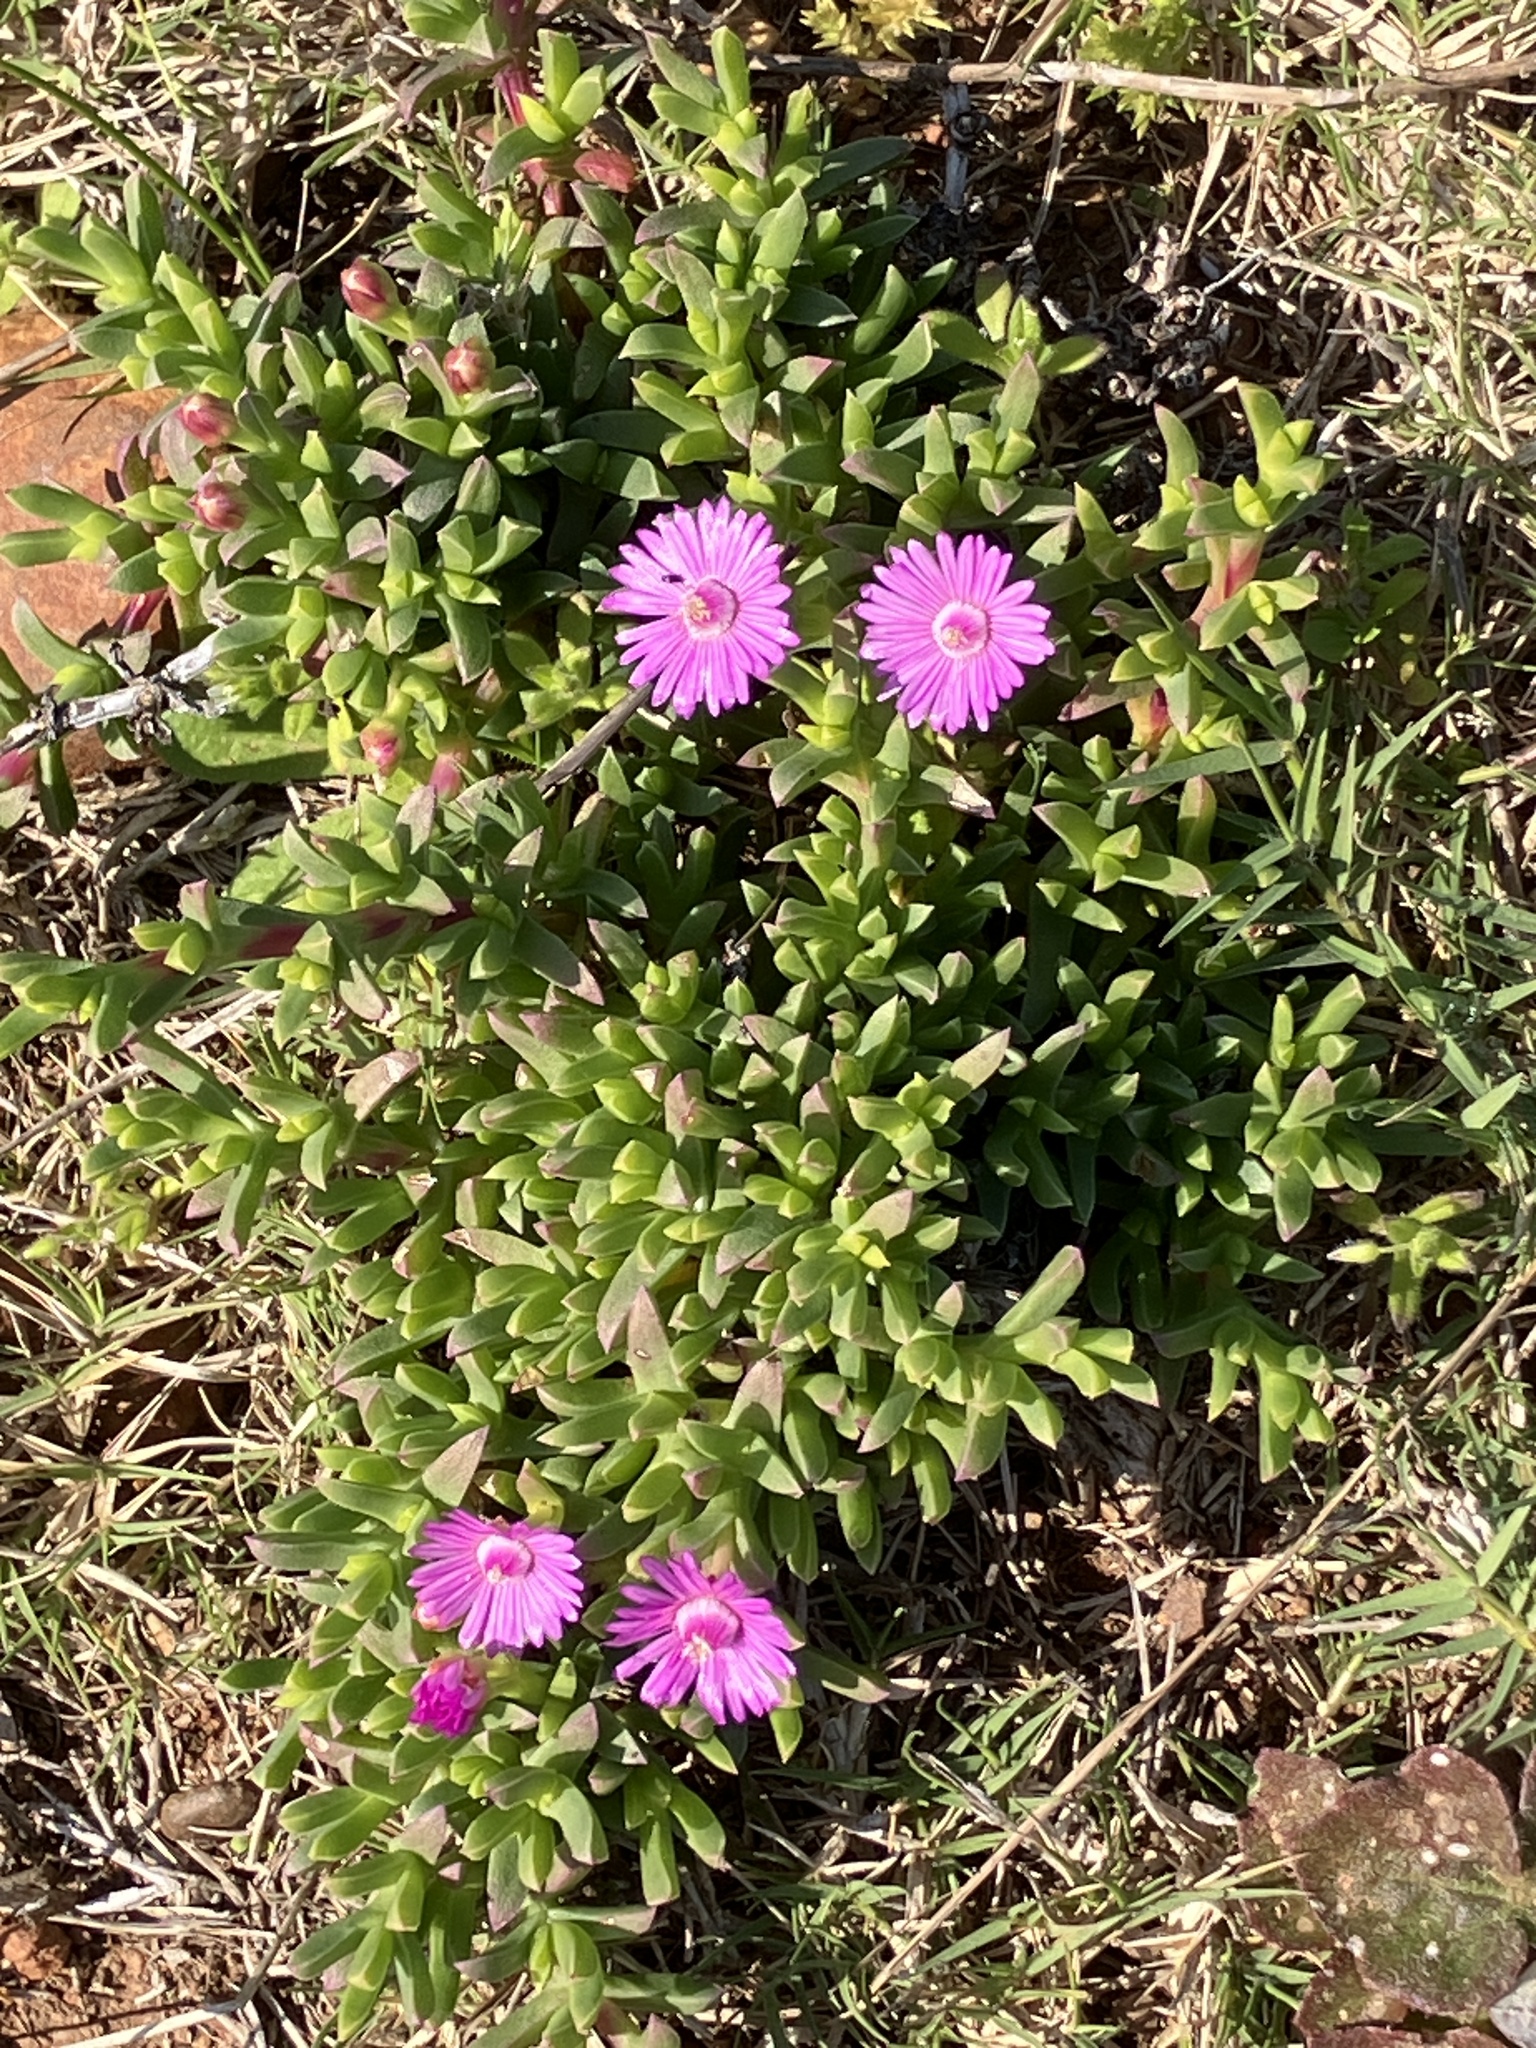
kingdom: Plantae
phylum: Tracheophyta
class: Magnoliopsida
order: Caryophyllales
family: Aizoaceae
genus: Ruschia
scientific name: Ruschia lineolata
